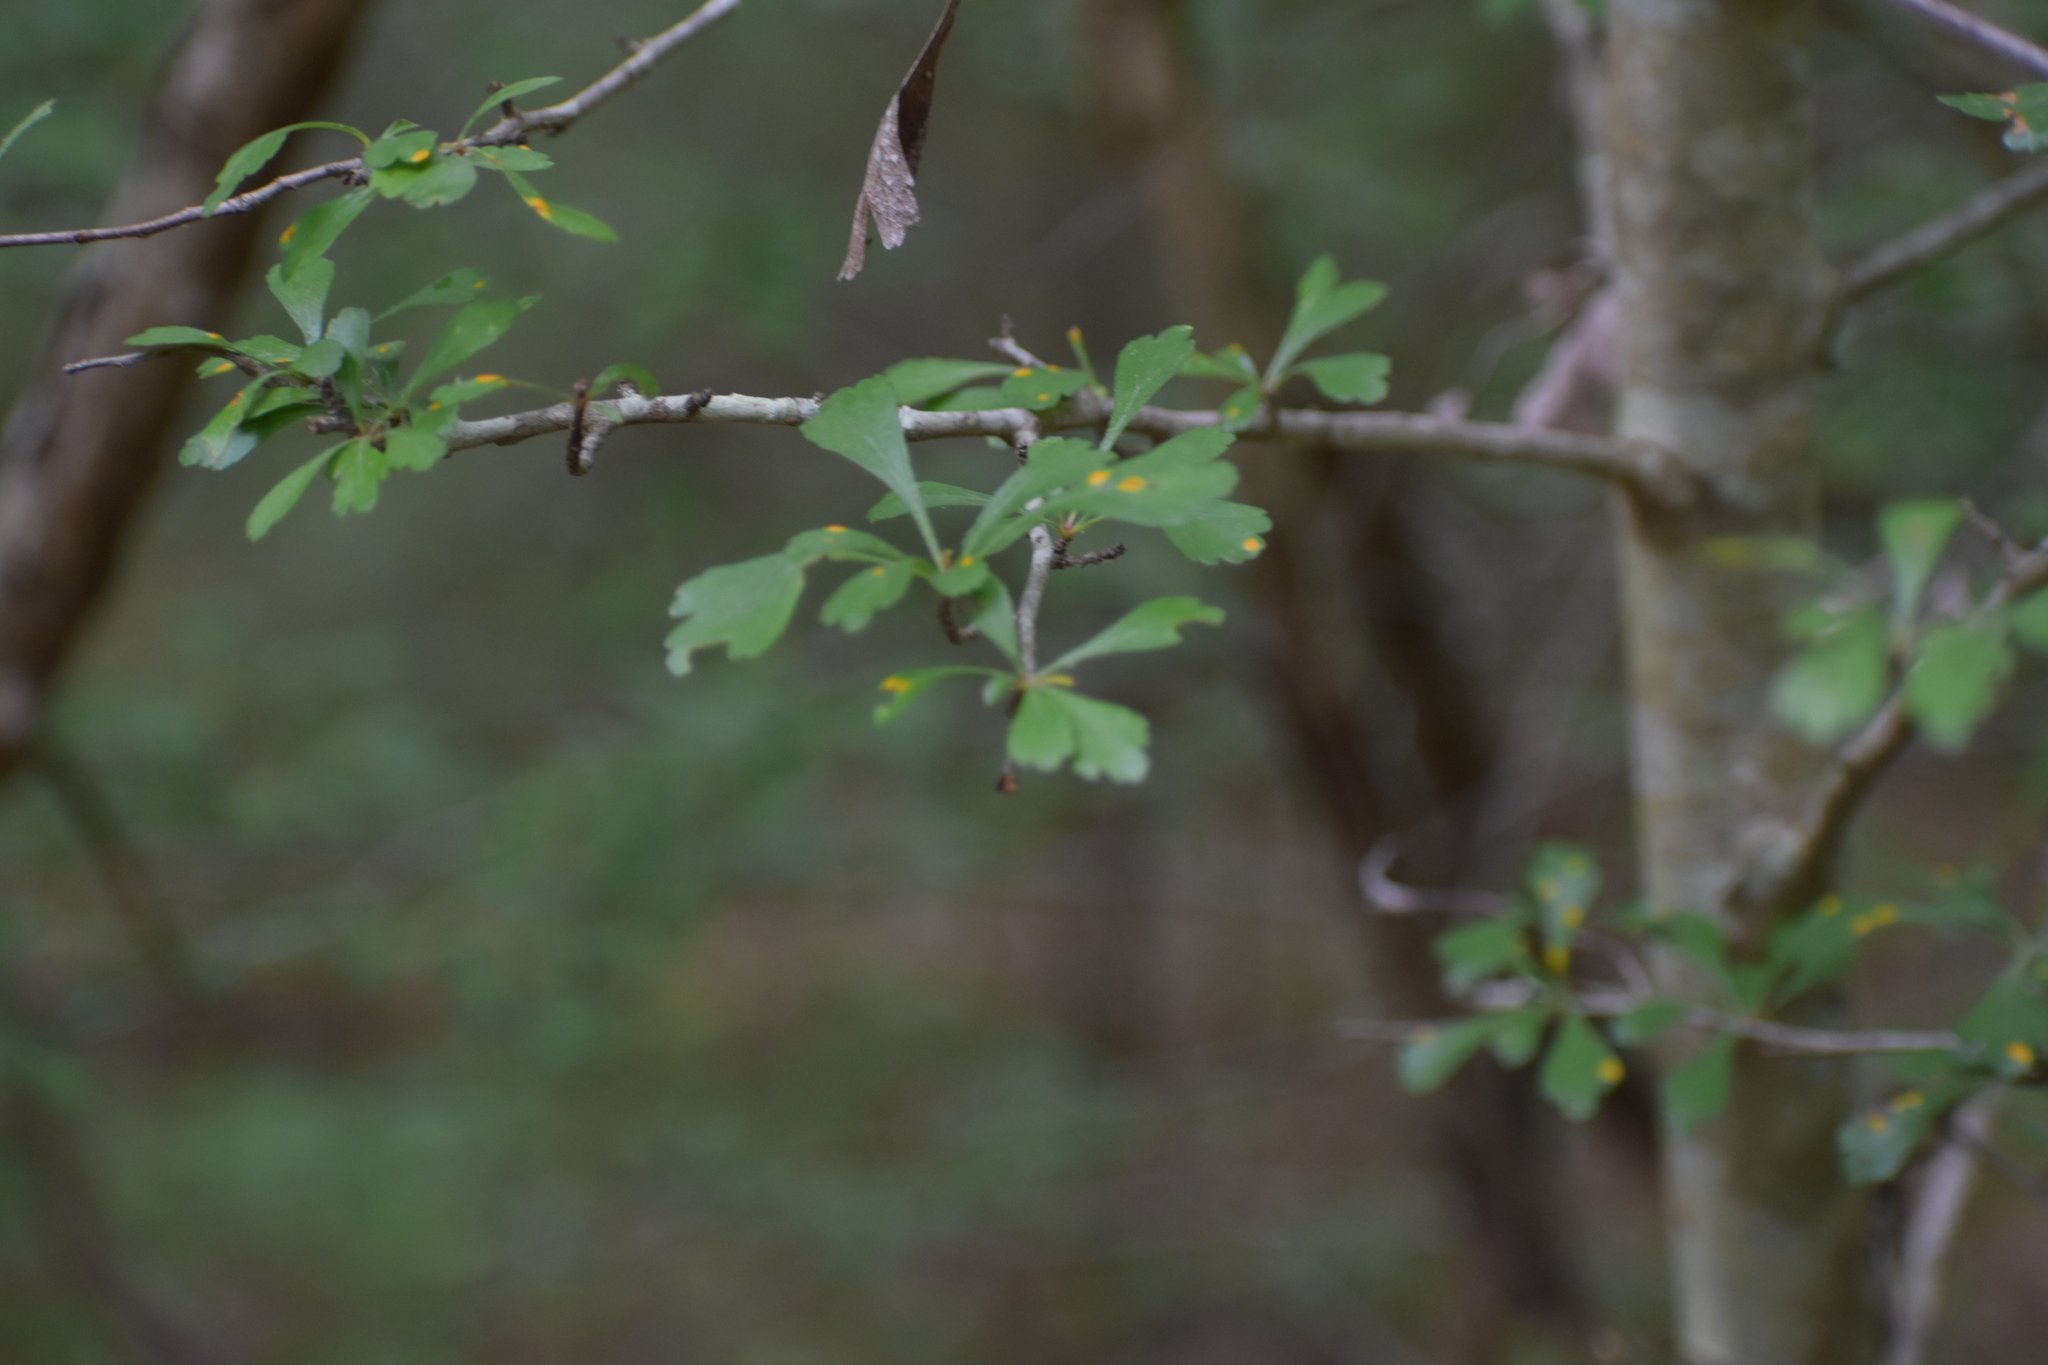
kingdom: Plantae
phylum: Tracheophyta
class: Magnoliopsida
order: Rosales
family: Rosaceae
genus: Crataegus
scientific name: Crataegus spathulata
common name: Littlehip hawthorn
